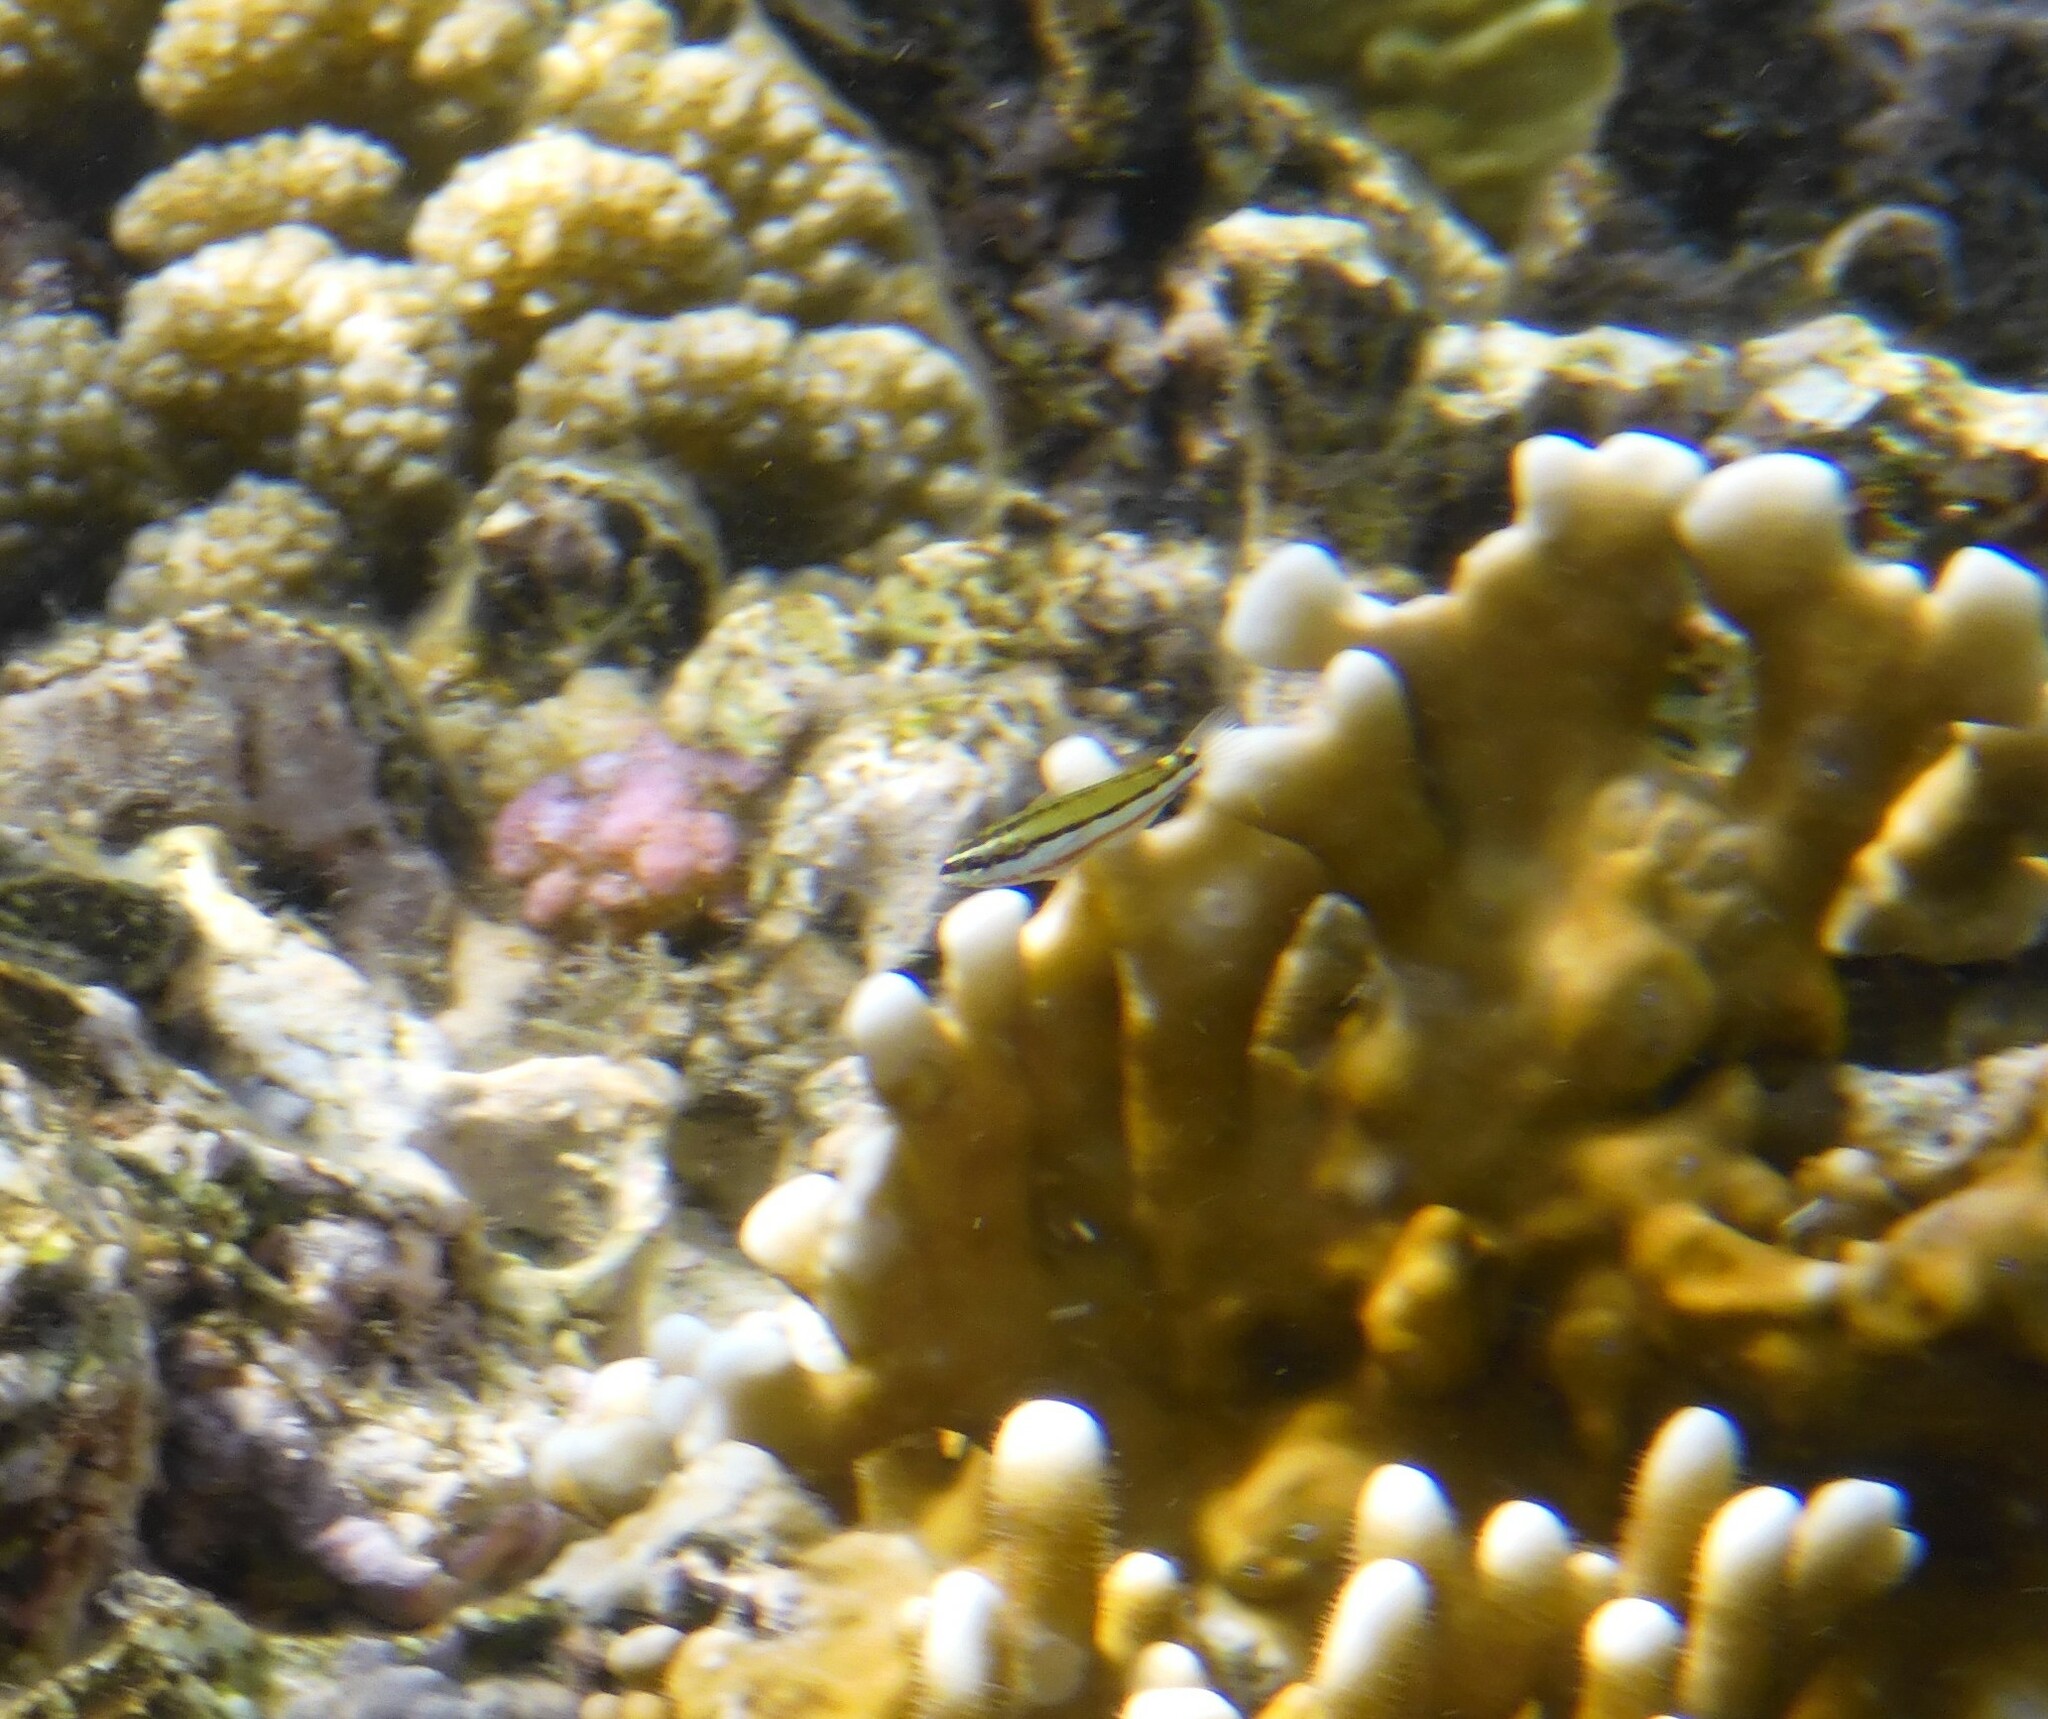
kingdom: Animalia
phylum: Chordata
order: Perciformes
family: Labridae
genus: Thalassoma
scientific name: Thalassoma rueppellii
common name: Klunzinger's wrasse
